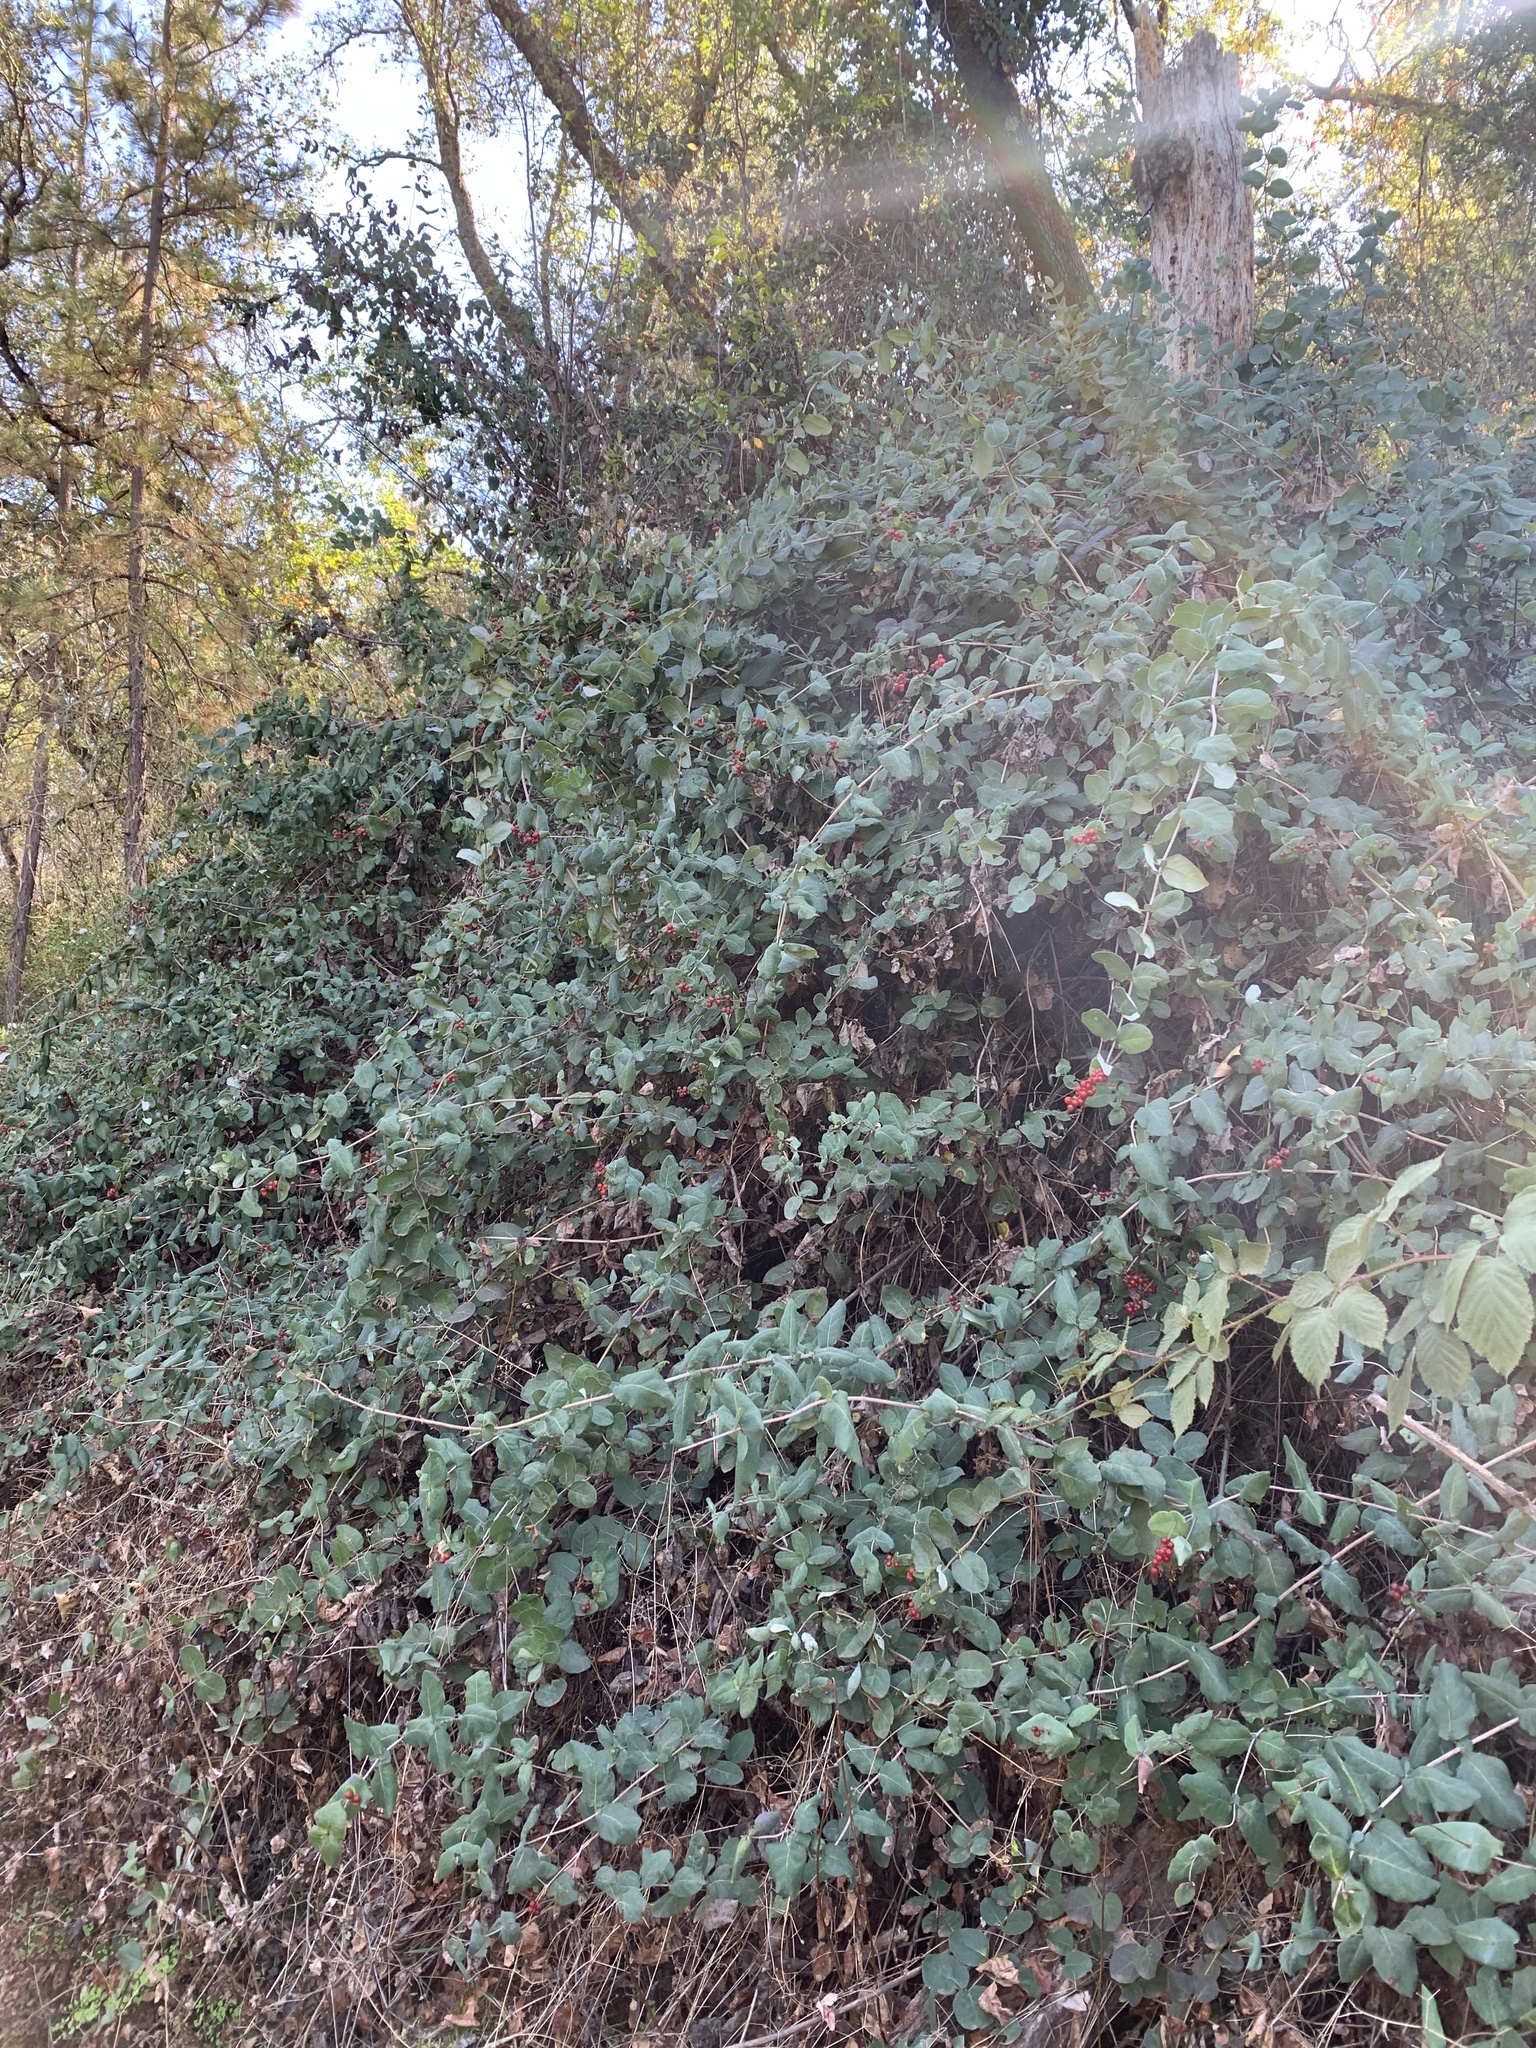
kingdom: Plantae
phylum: Tracheophyta
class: Magnoliopsida
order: Dipsacales
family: Caprifoliaceae
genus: Lonicera
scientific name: Lonicera hispidula
